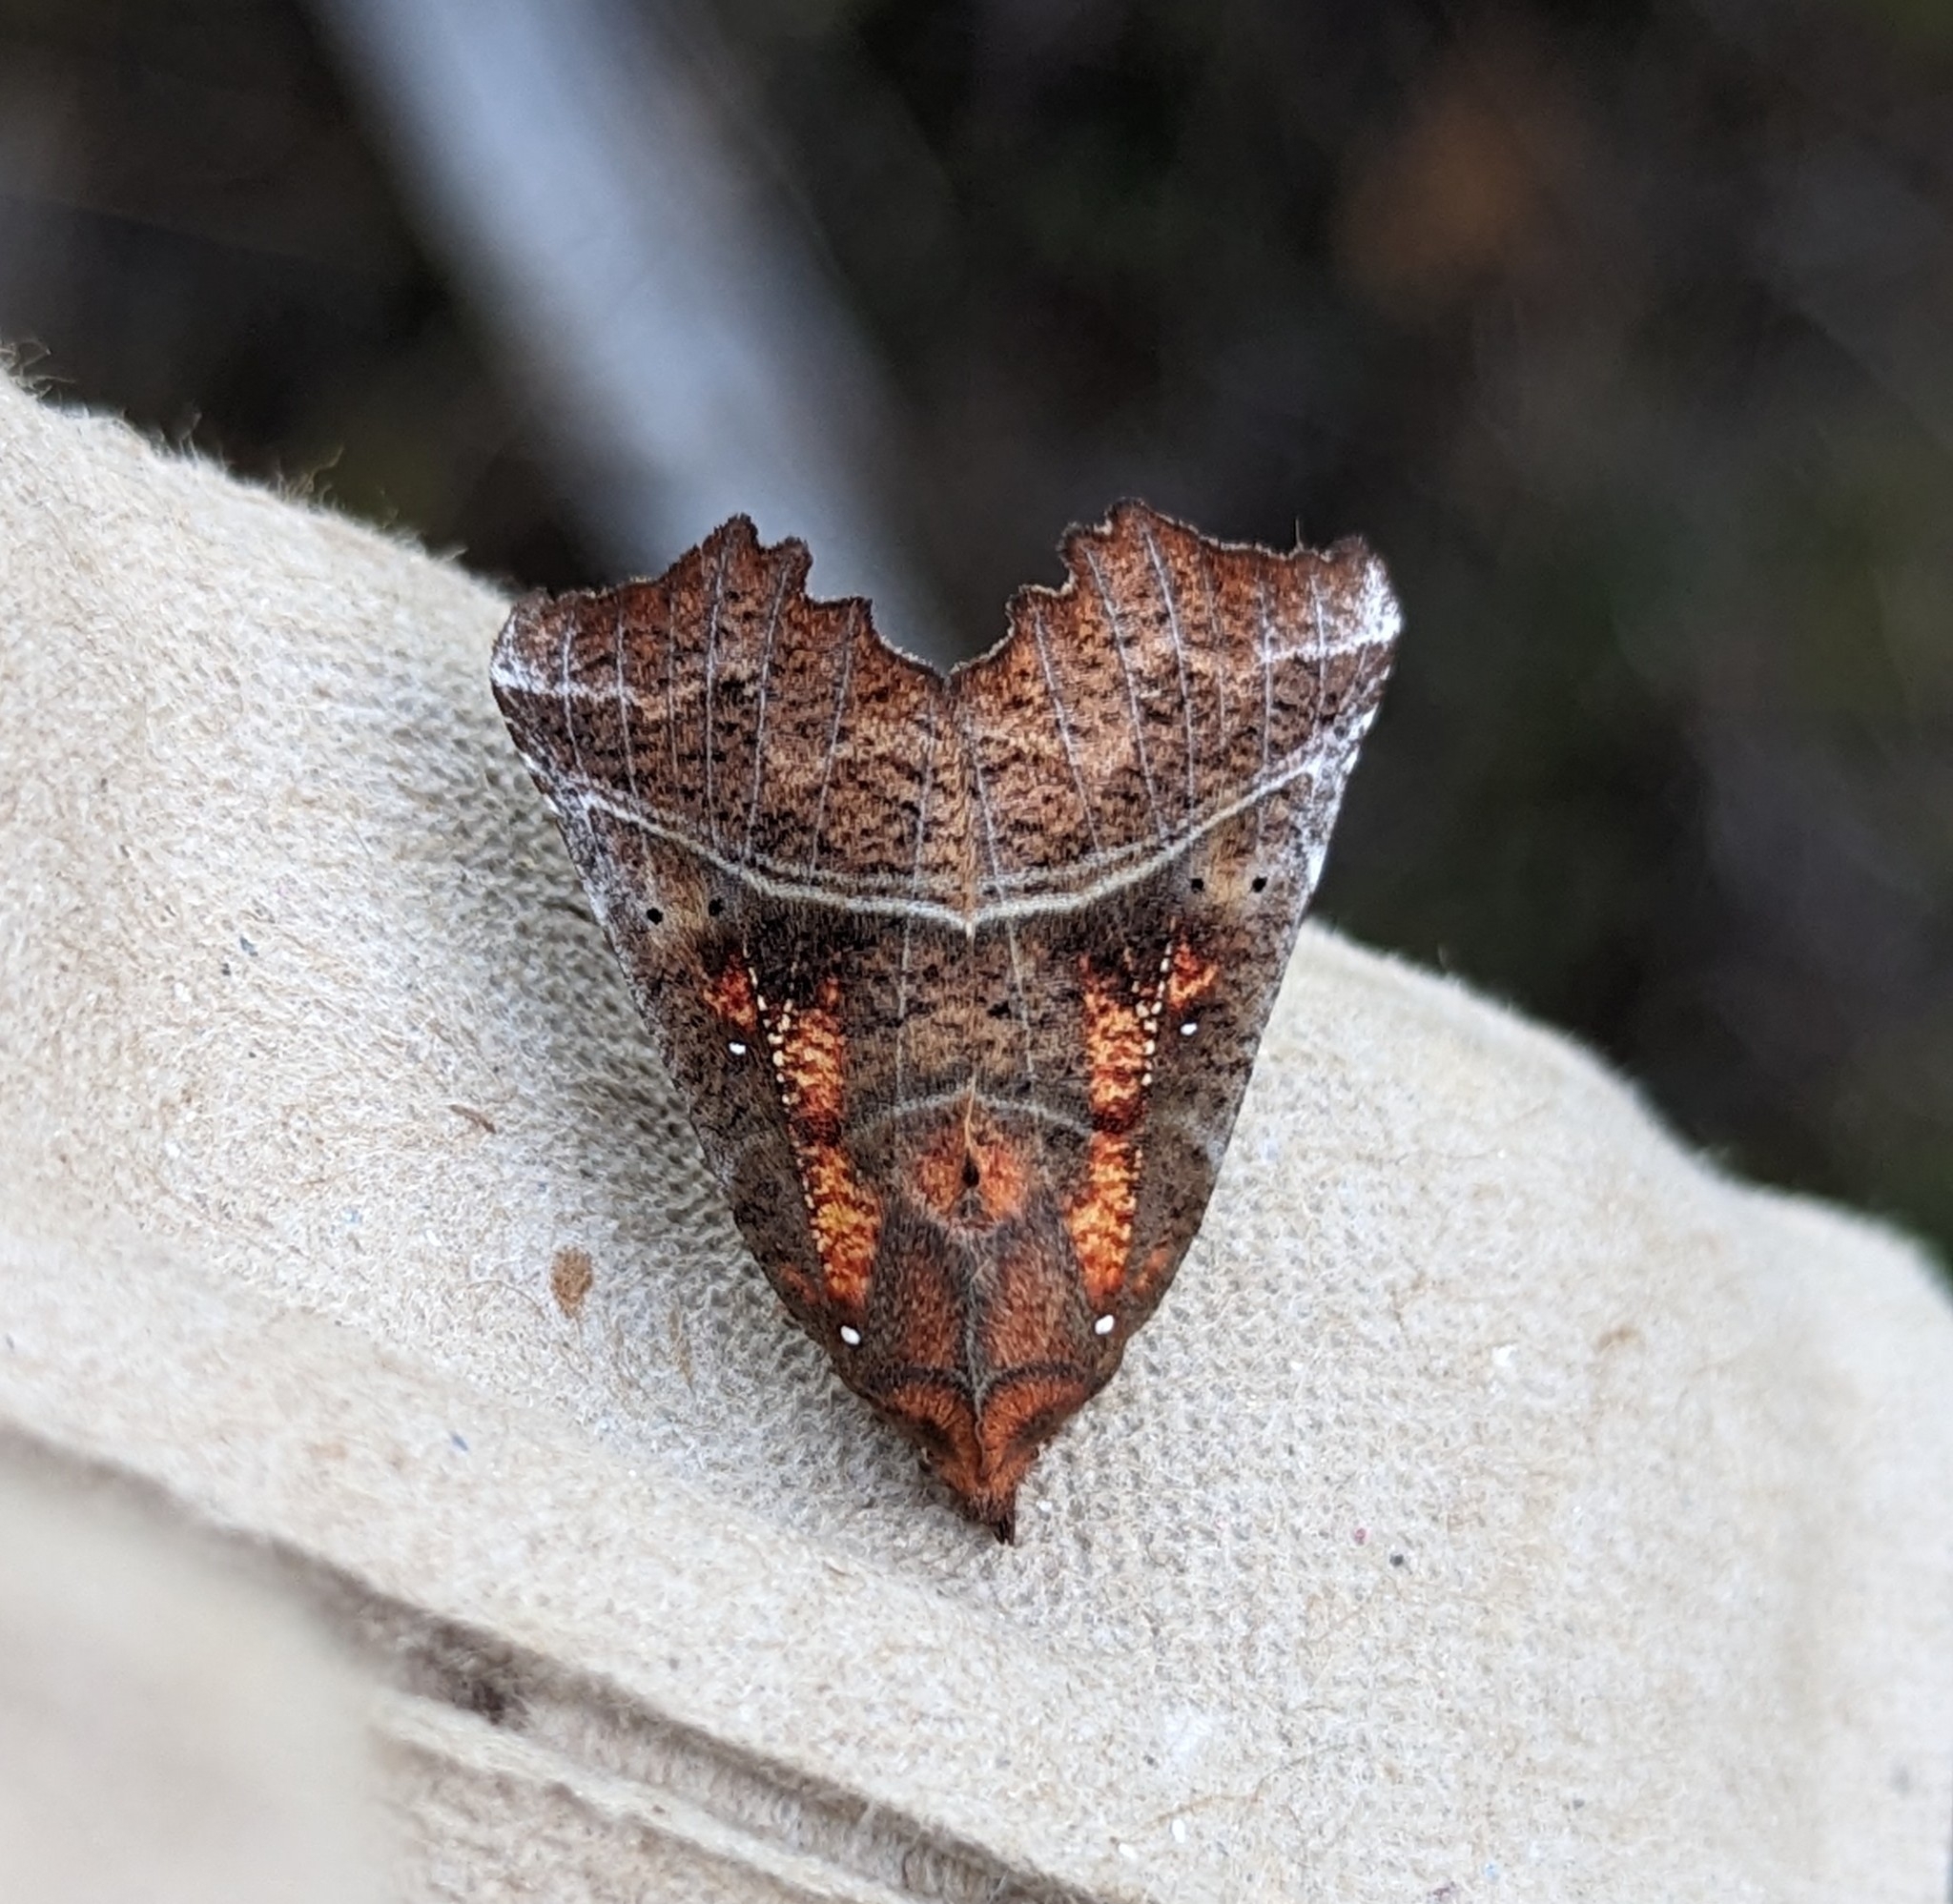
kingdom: Animalia
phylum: Arthropoda
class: Insecta
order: Lepidoptera
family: Erebidae
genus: Scoliopteryx
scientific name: Scoliopteryx libatrix
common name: Herald
